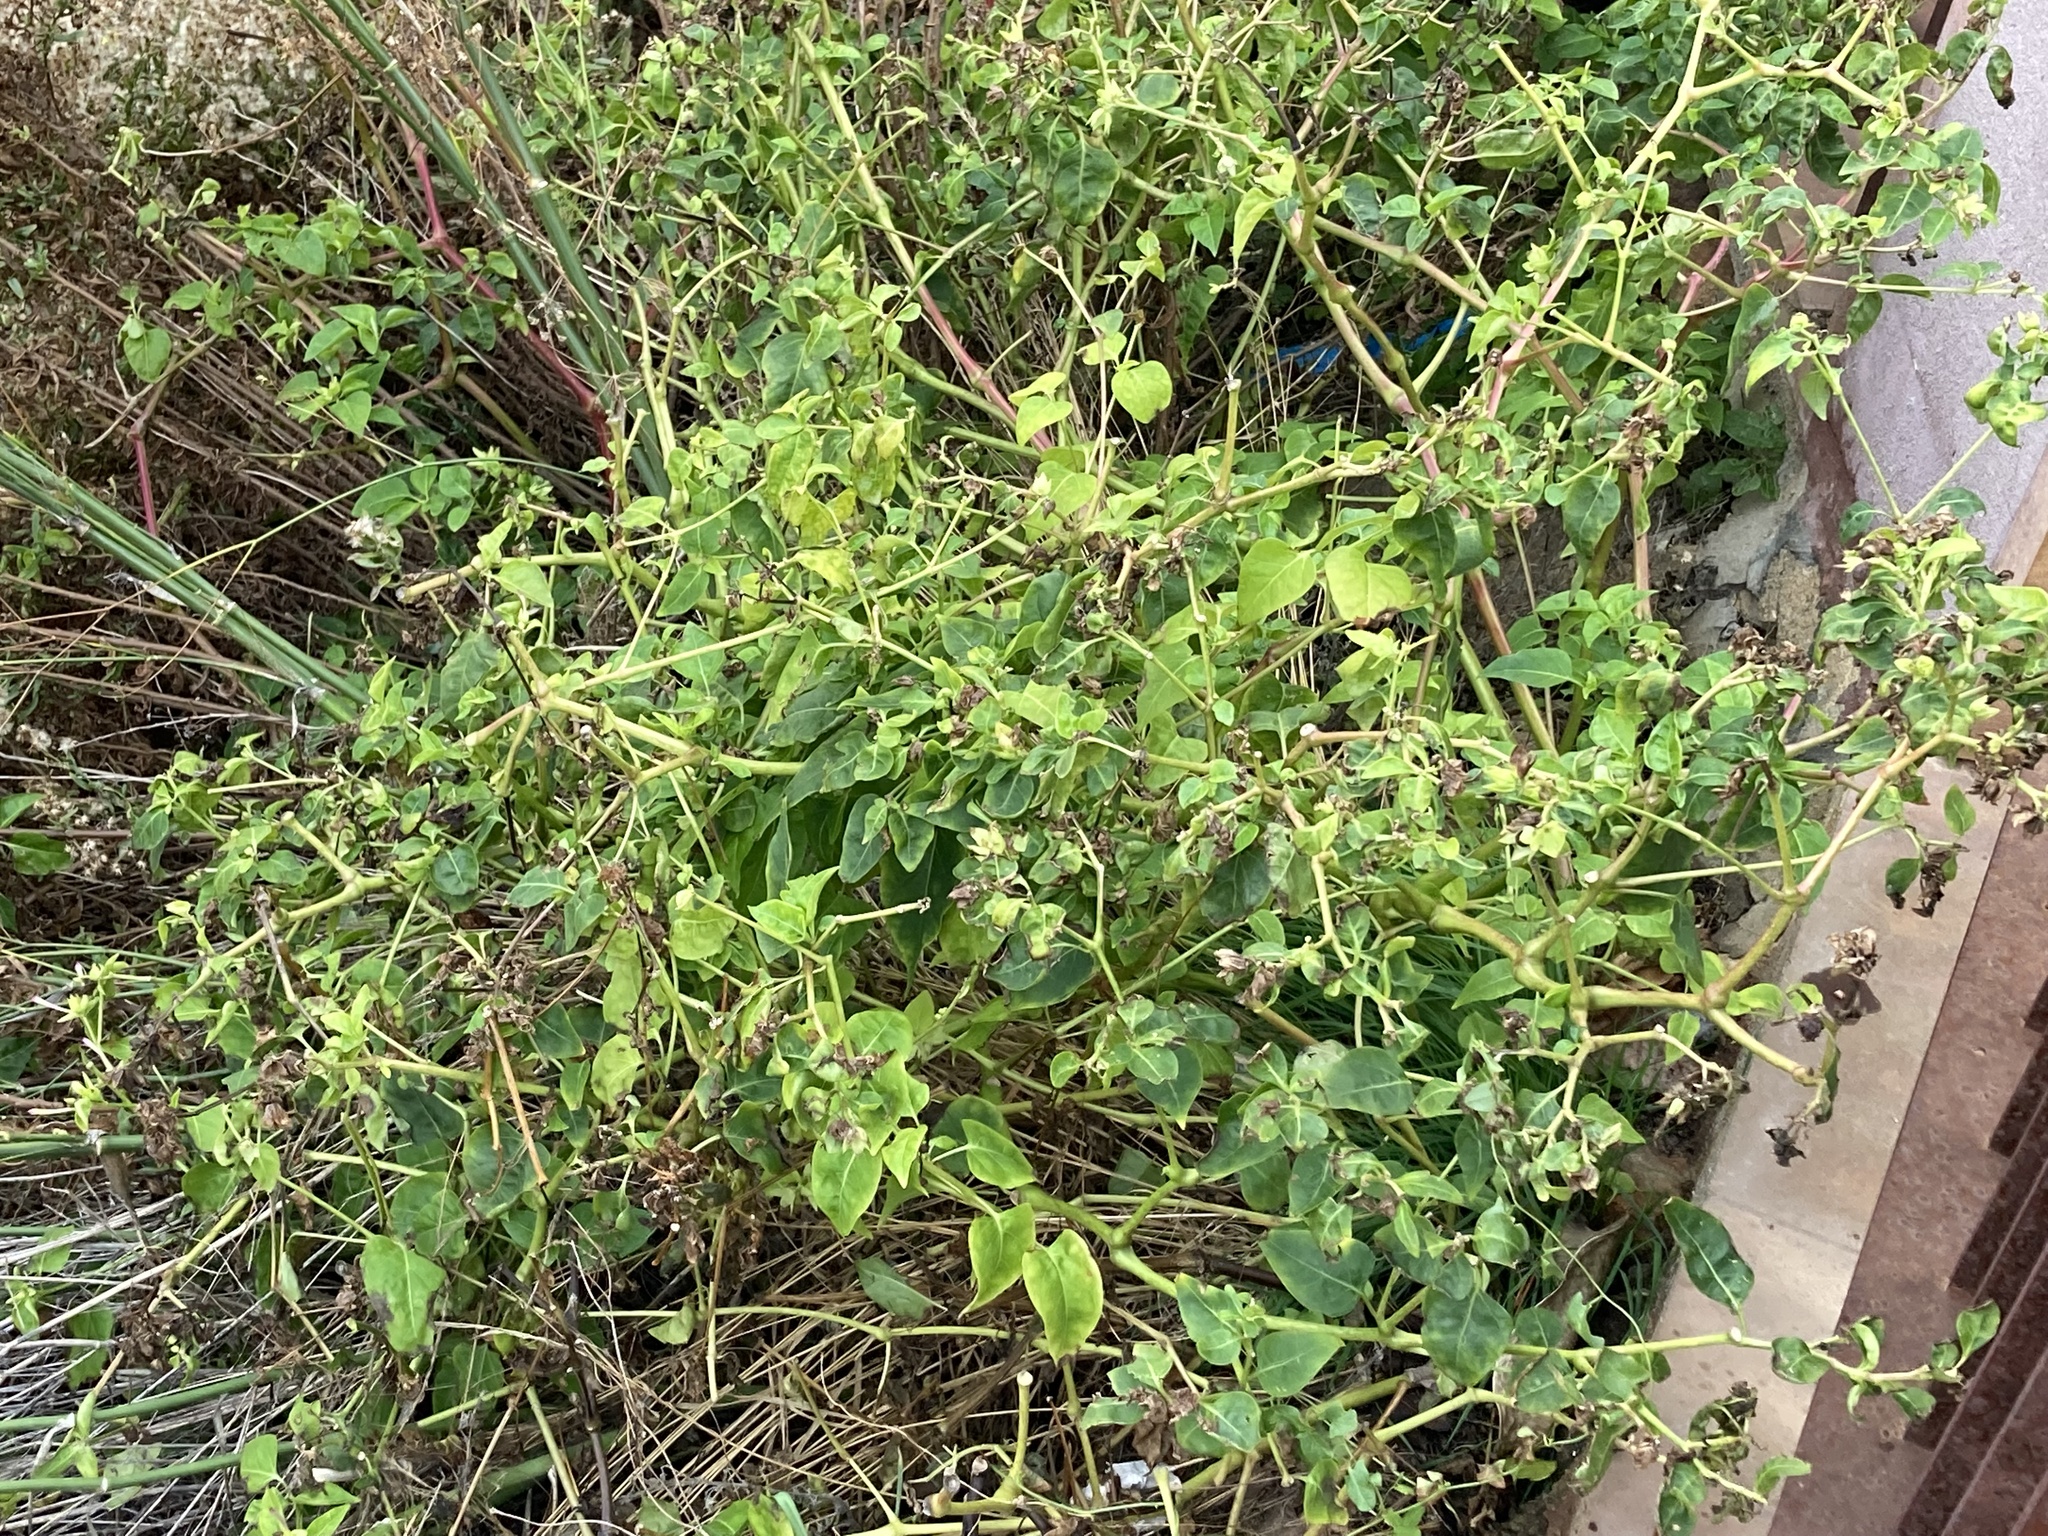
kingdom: Plantae
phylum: Tracheophyta
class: Magnoliopsida
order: Caryophyllales
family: Nyctaginaceae
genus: Mirabilis
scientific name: Mirabilis jalapa
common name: Marvel-of-peru
